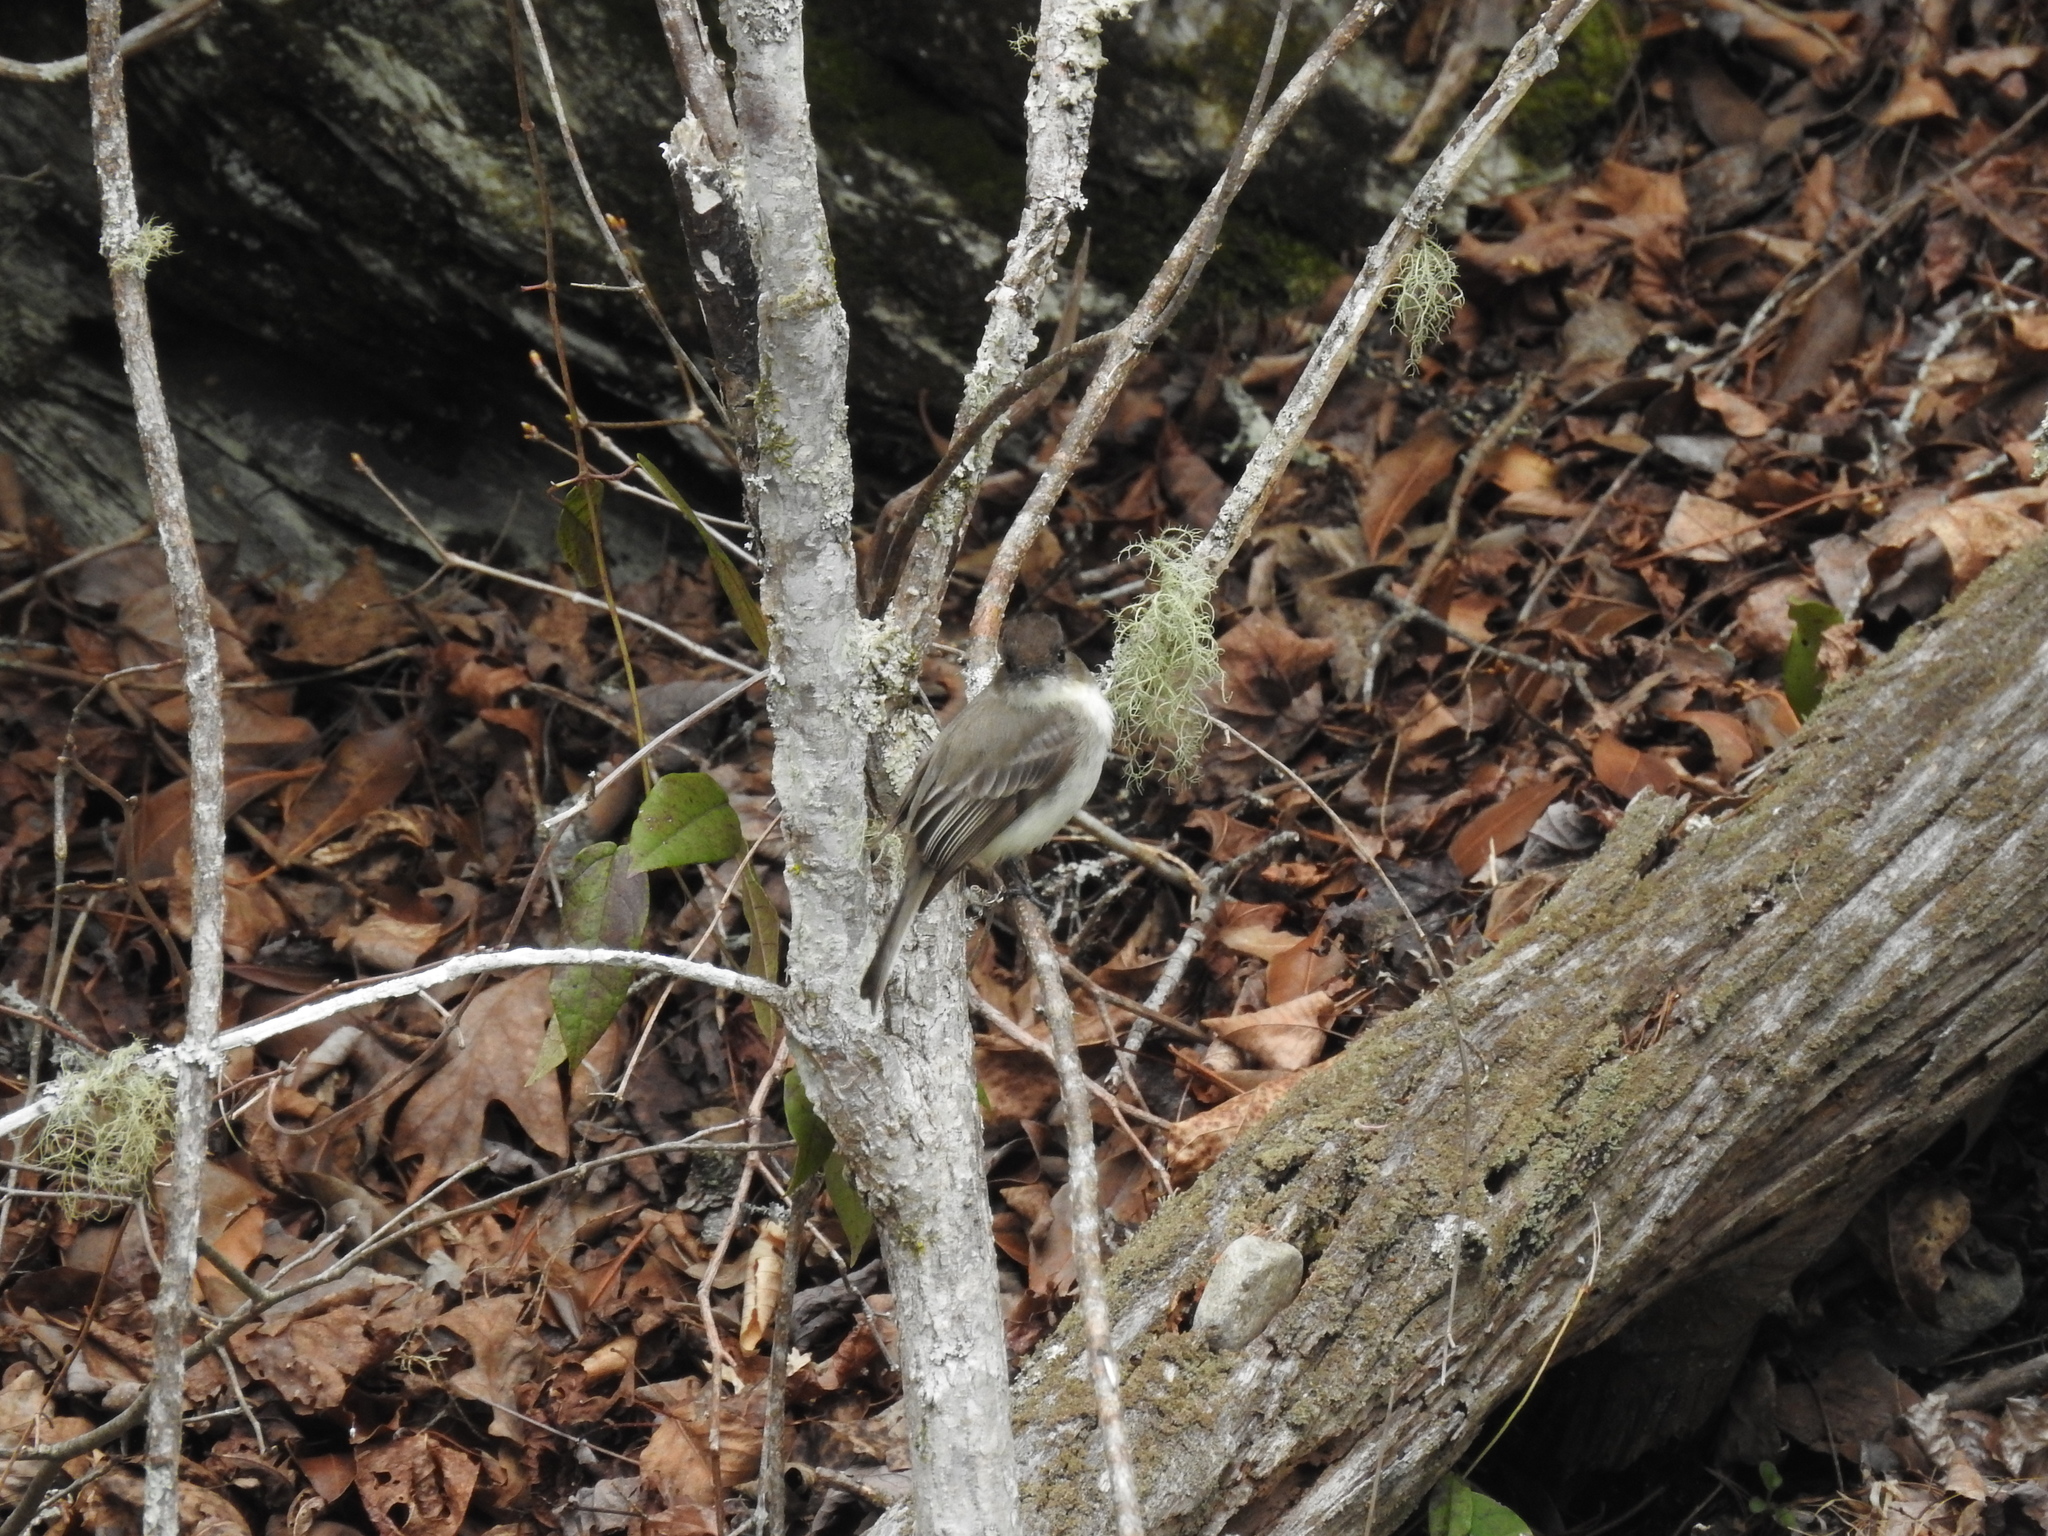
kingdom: Animalia
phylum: Chordata
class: Aves
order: Passeriformes
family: Tyrannidae
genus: Sayornis
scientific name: Sayornis phoebe
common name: Eastern phoebe
